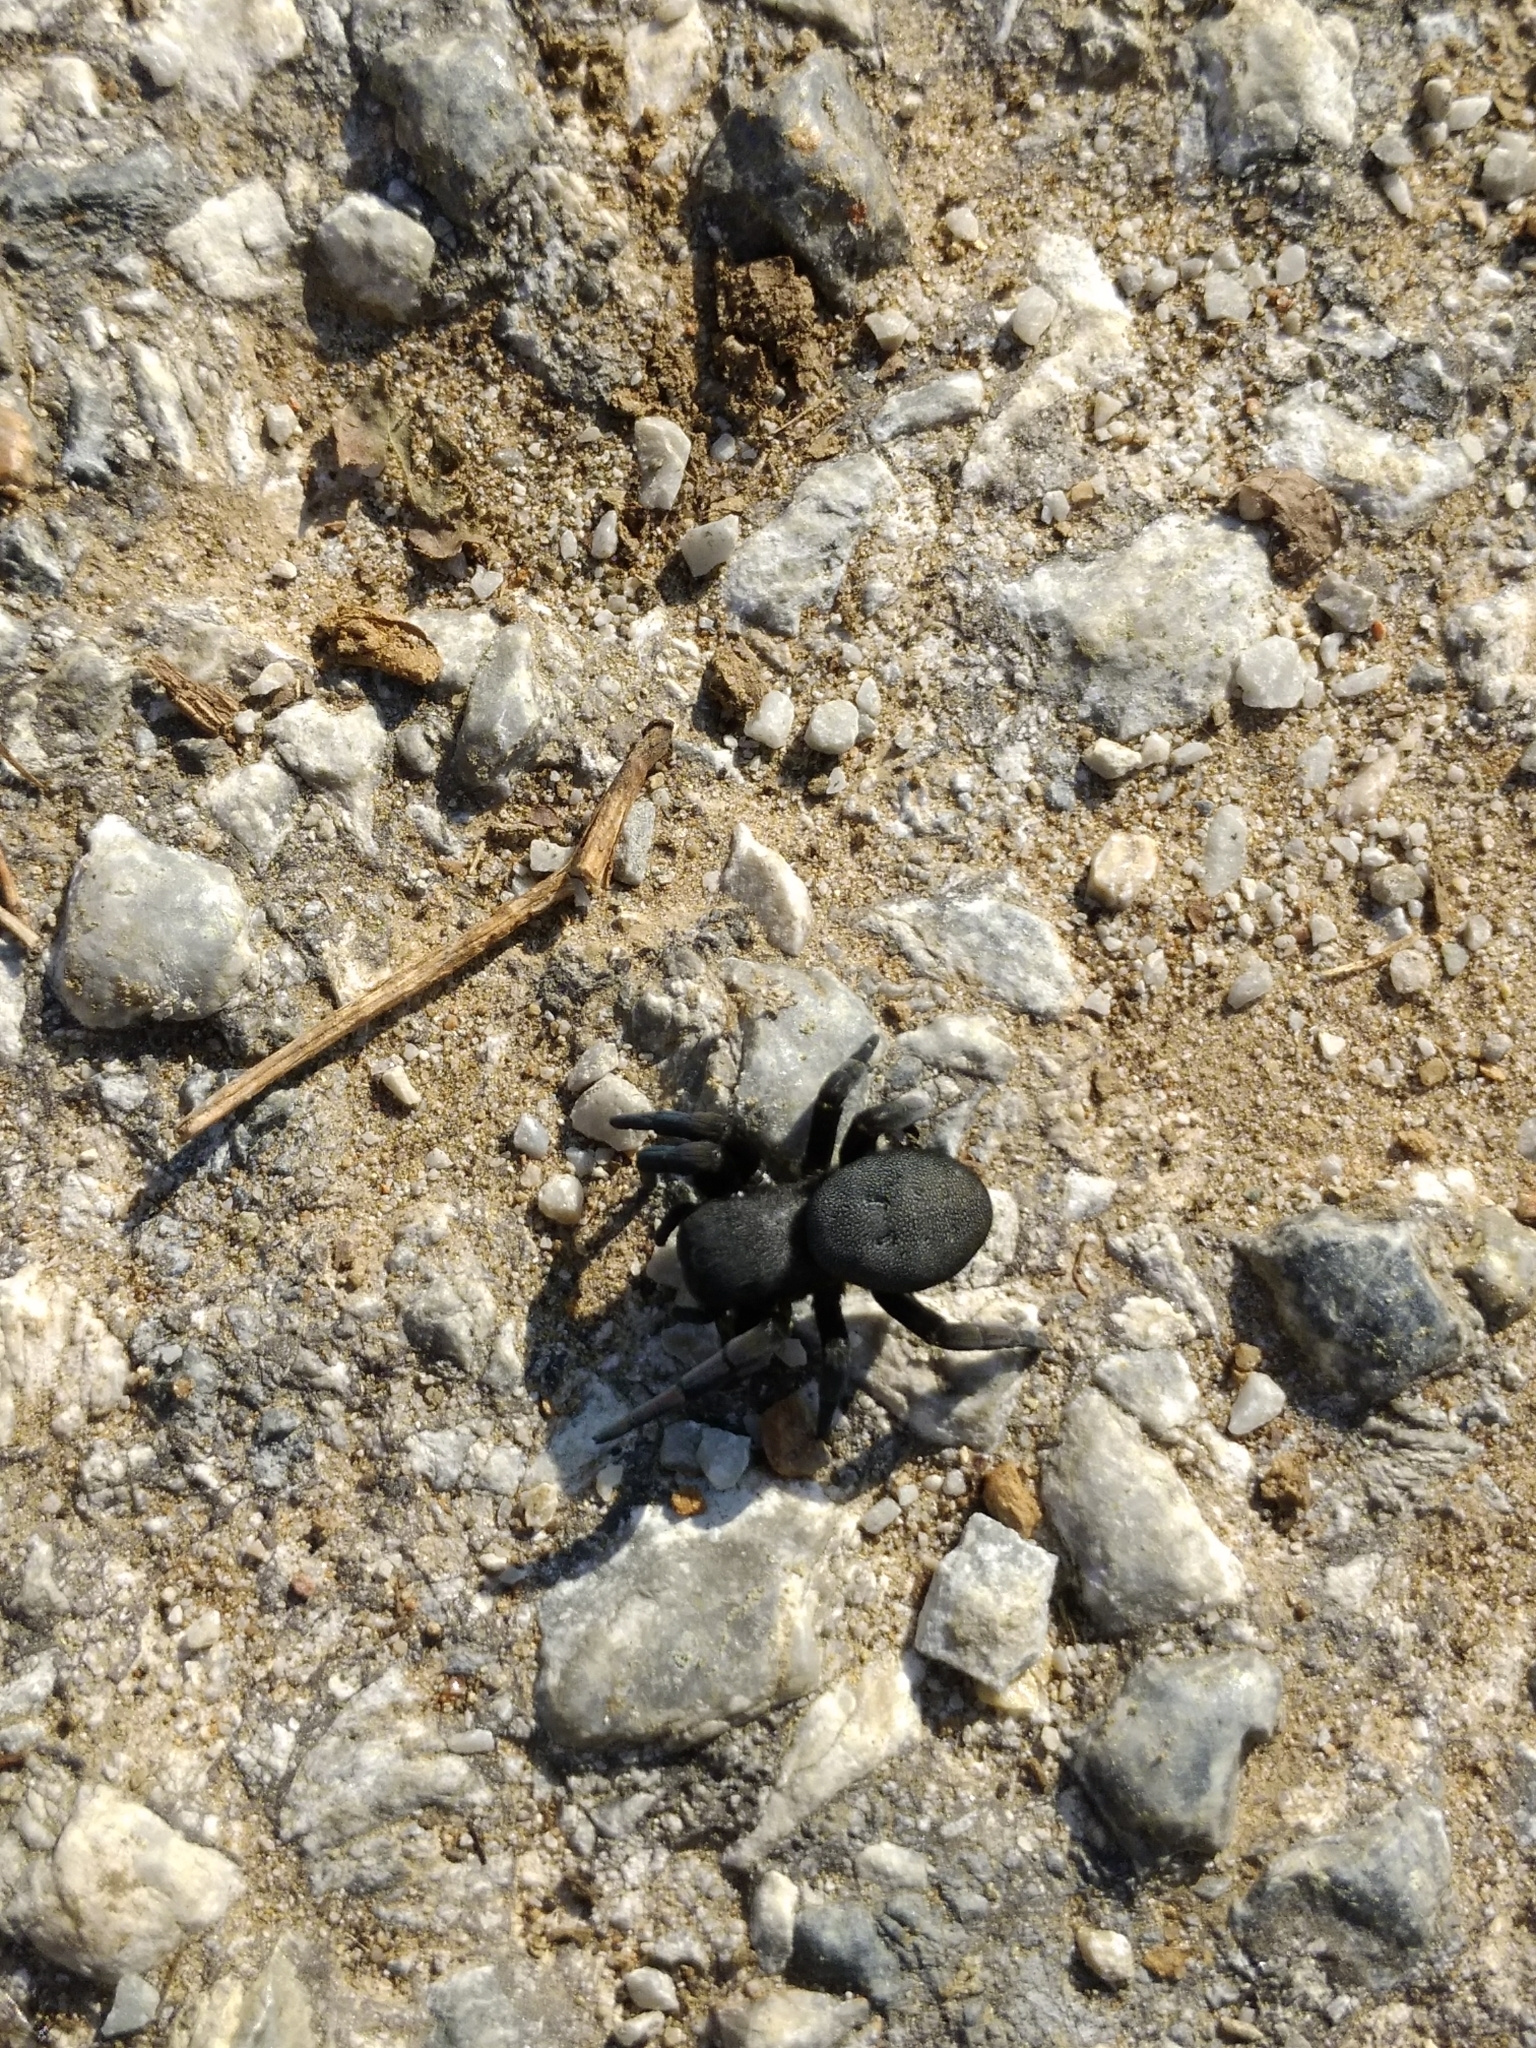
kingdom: Animalia
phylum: Arthropoda
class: Arachnida
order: Araneae
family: Eresidae
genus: Eresus
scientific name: Eresus
